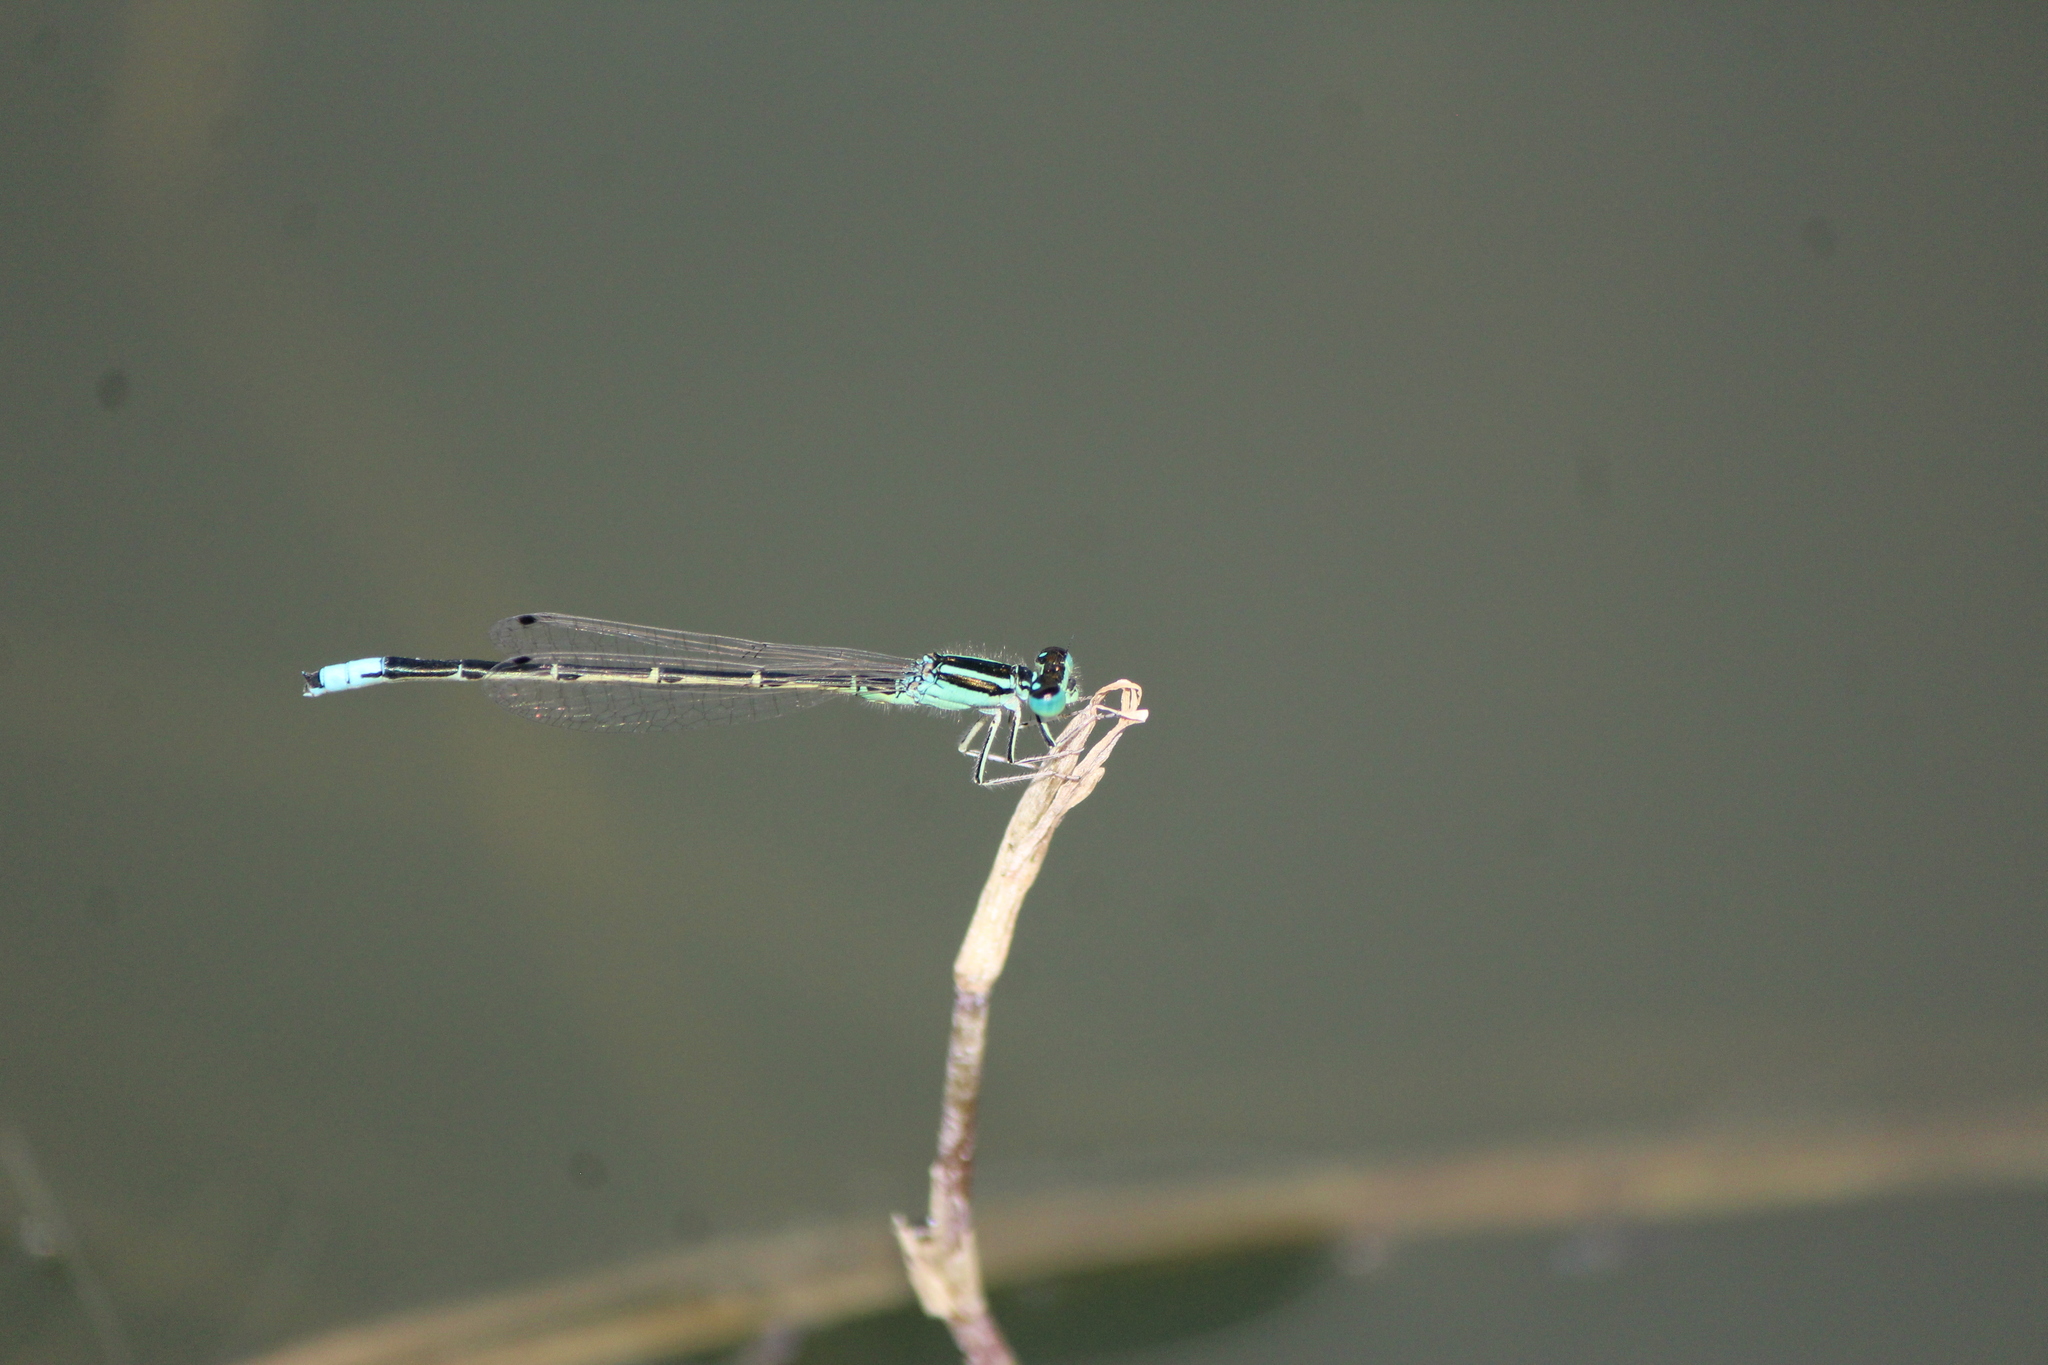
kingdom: Animalia
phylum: Arthropoda
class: Insecta
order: Odonata
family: Coenagrionidae
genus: Ischnura
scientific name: Ischnura demorsa
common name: Mexican forktail
